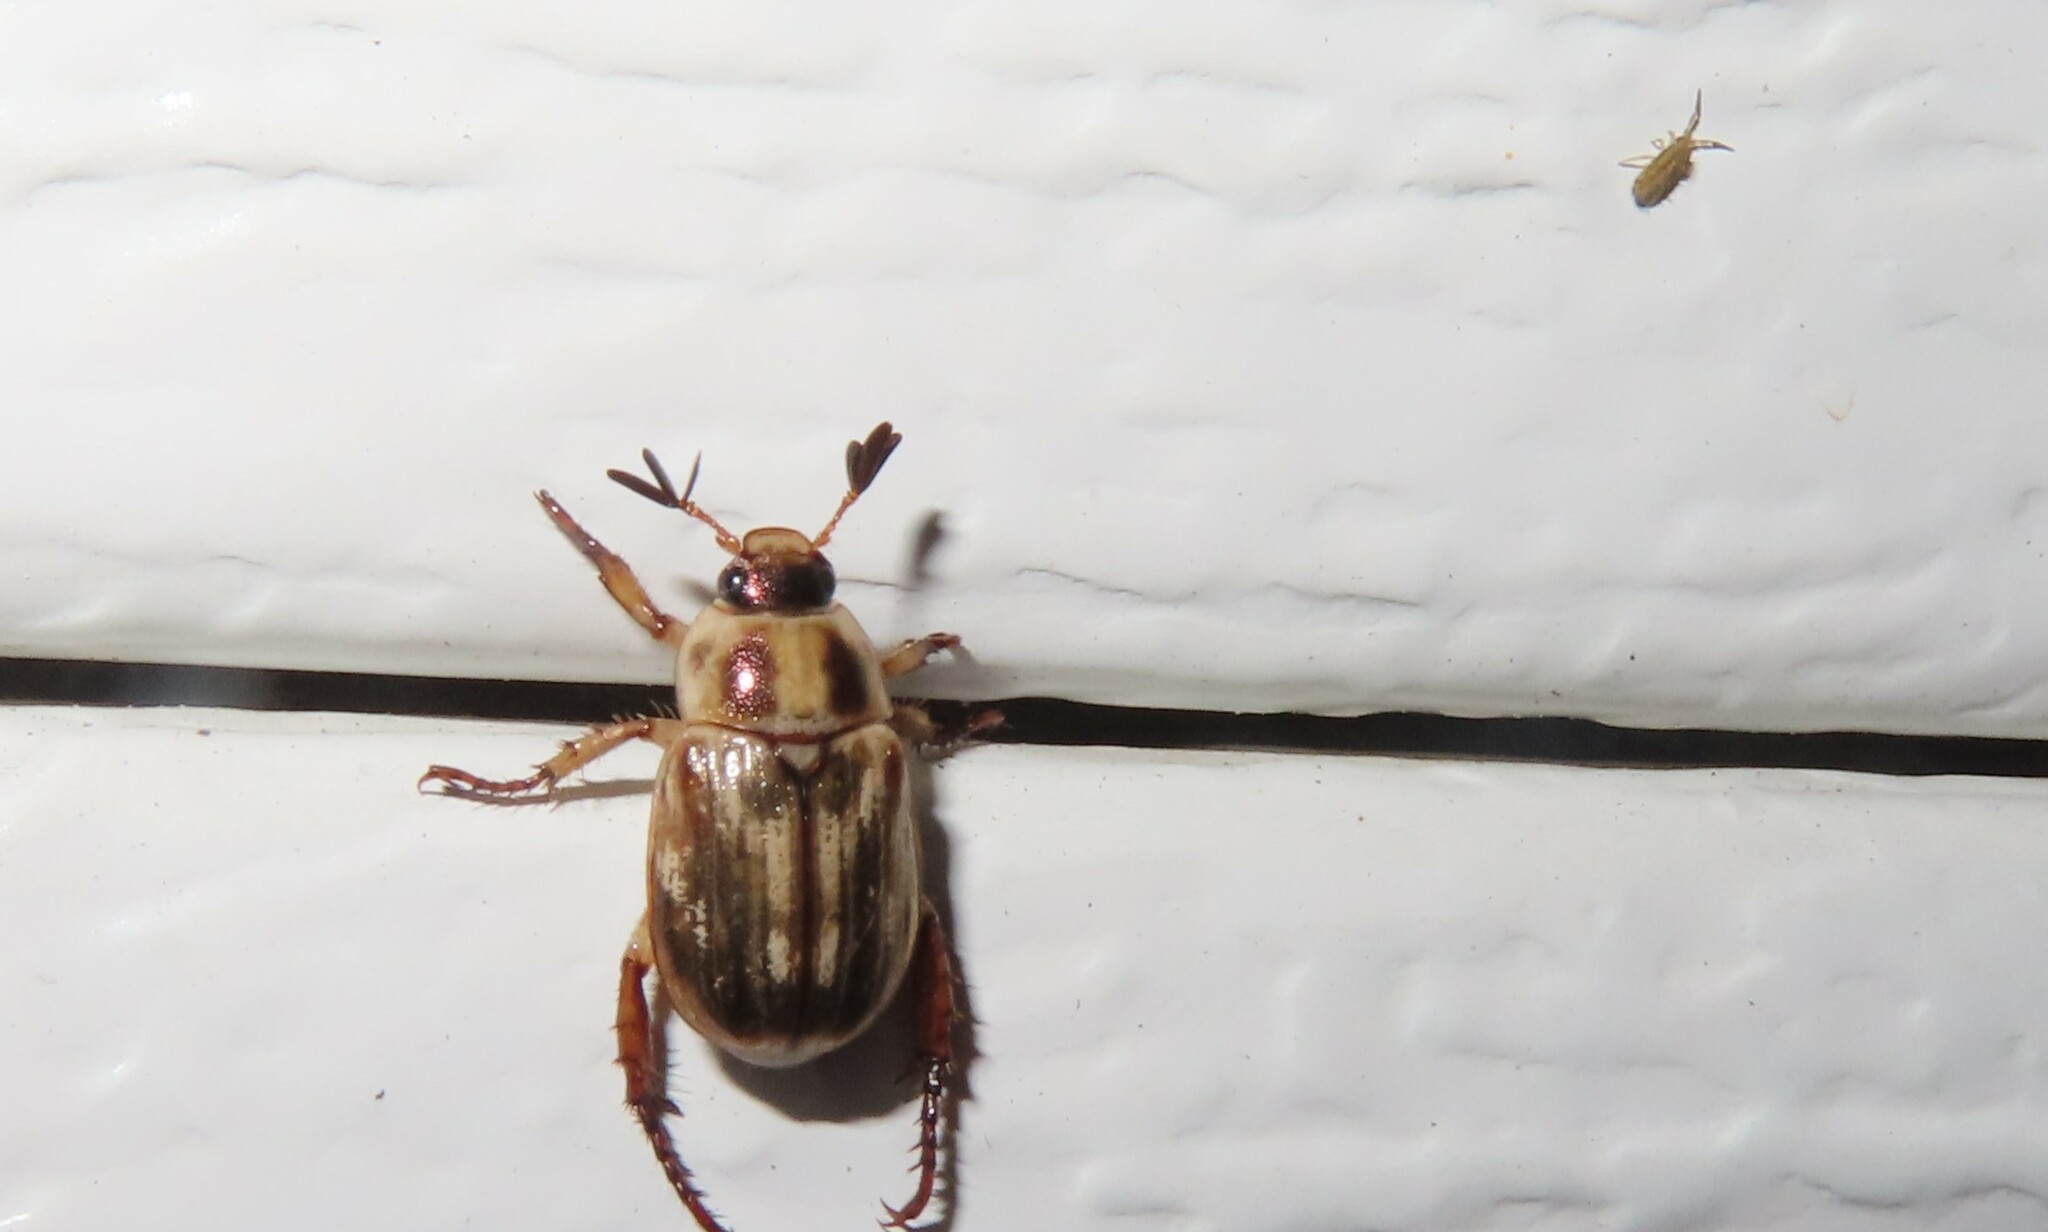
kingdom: Animalia
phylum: Arthropoda
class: Insecta
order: Coleoptera
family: Scarabaeidae
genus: Exomala
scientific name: Exomala orientalis
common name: Oriental beetle
